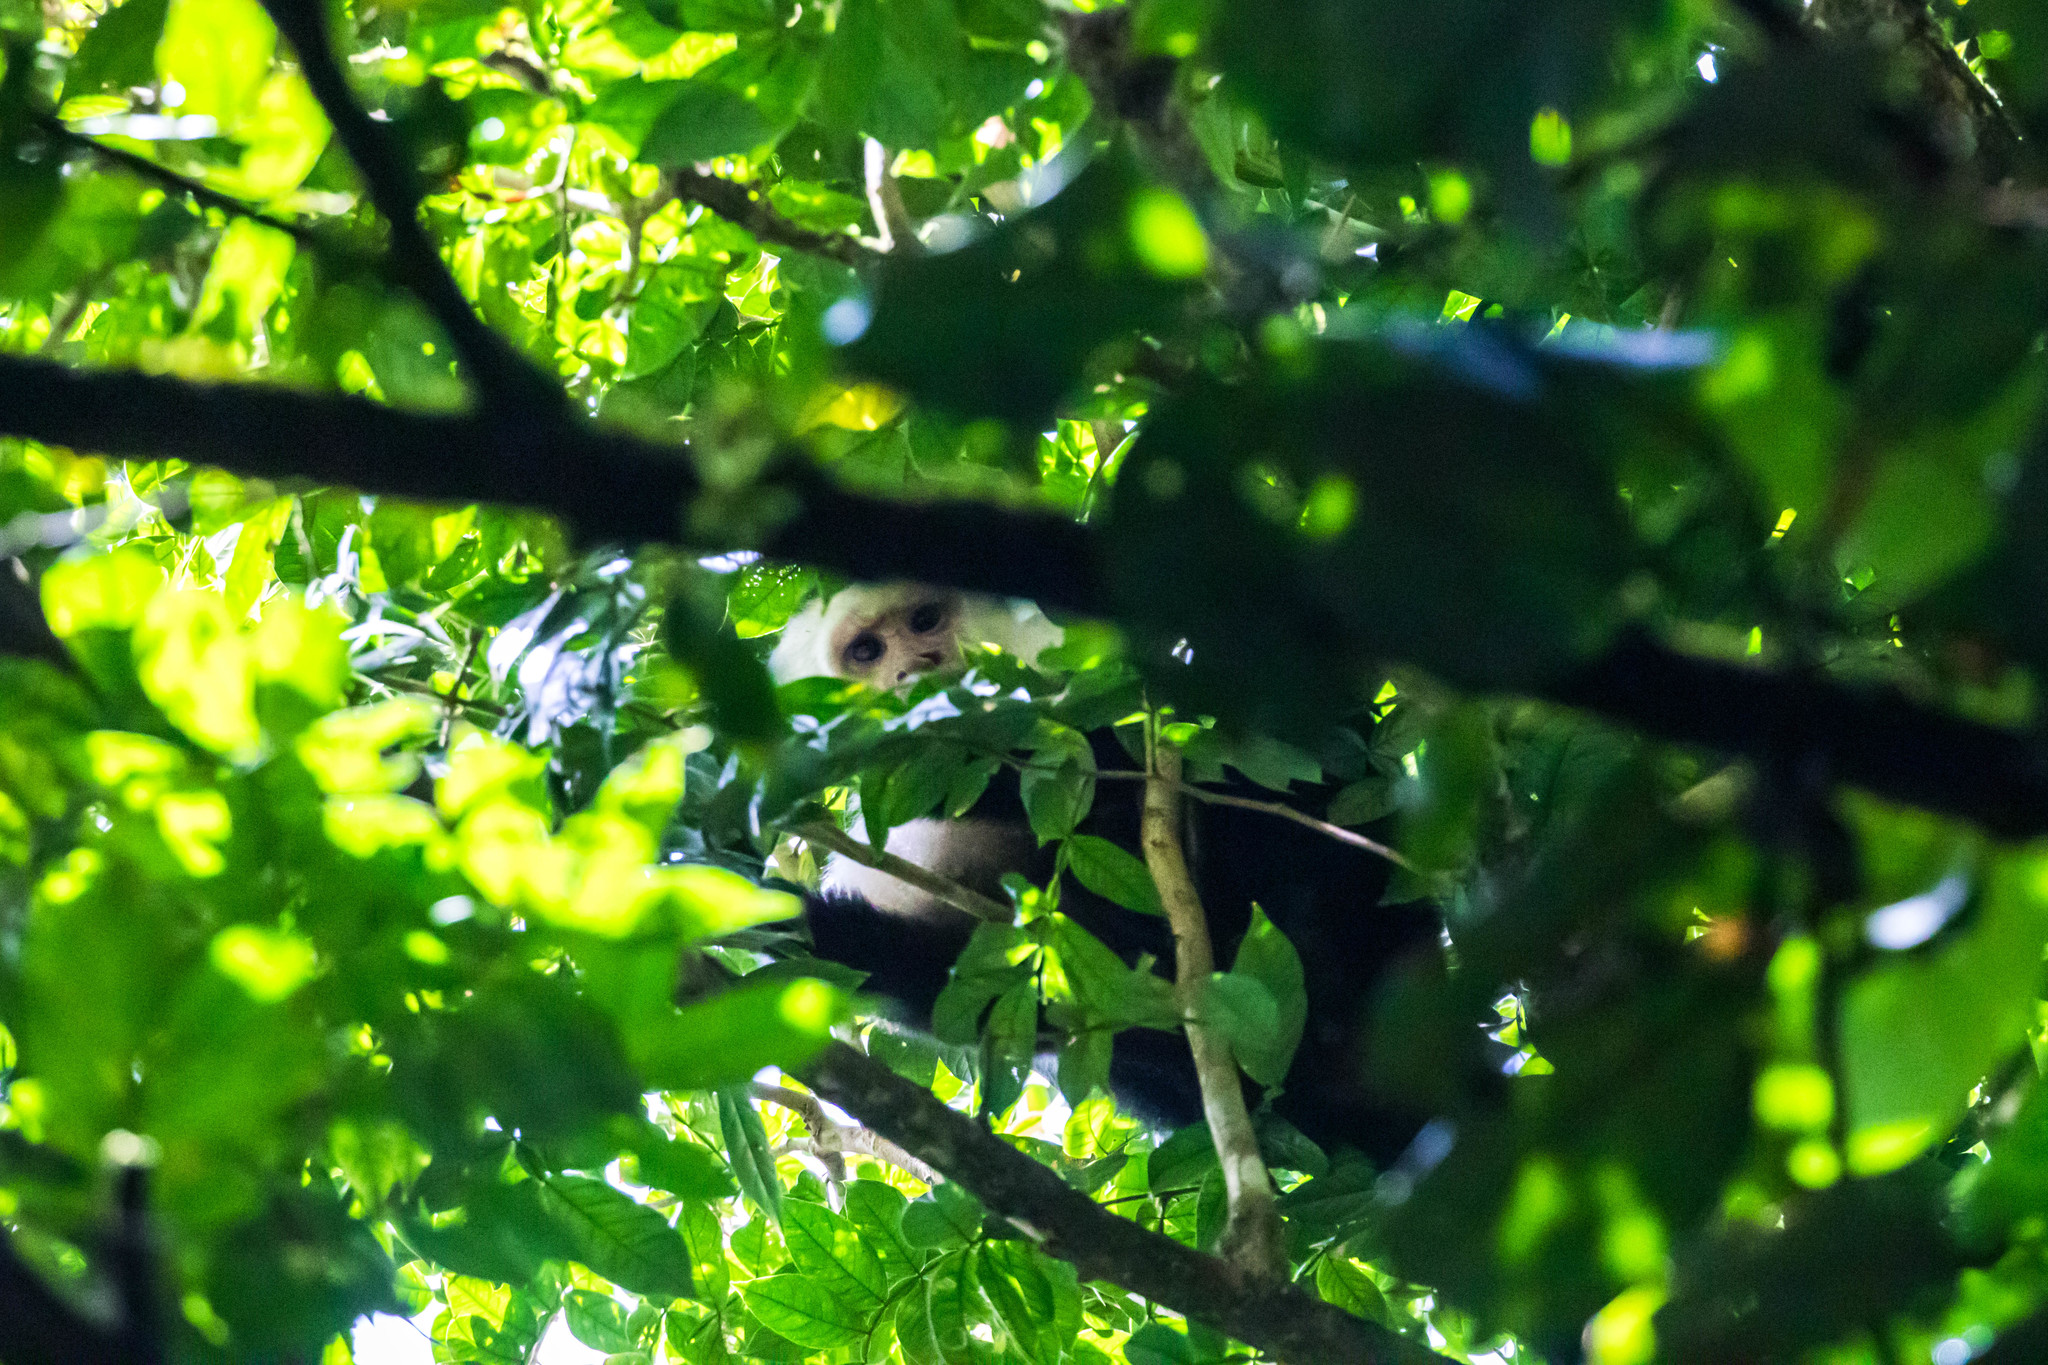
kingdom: Animalia
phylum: Chordata
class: Mammalia
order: Primates
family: Cebidae
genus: Cebus
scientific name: Cebus imitator
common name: Panamanian white-faced capuchin
